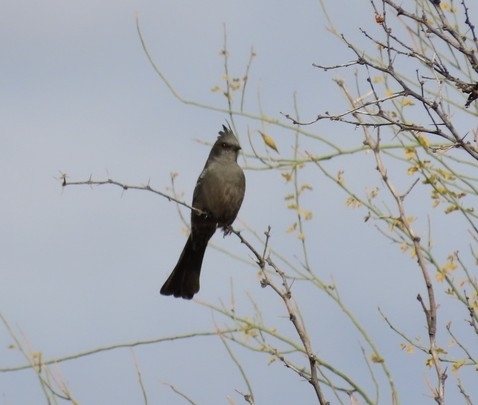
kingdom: Animalia
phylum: Chordata
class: Aves
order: Passeriformes
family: Ptilogonatidae
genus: Phainopepla
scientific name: Phainopepla nitens
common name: Phainopepla
